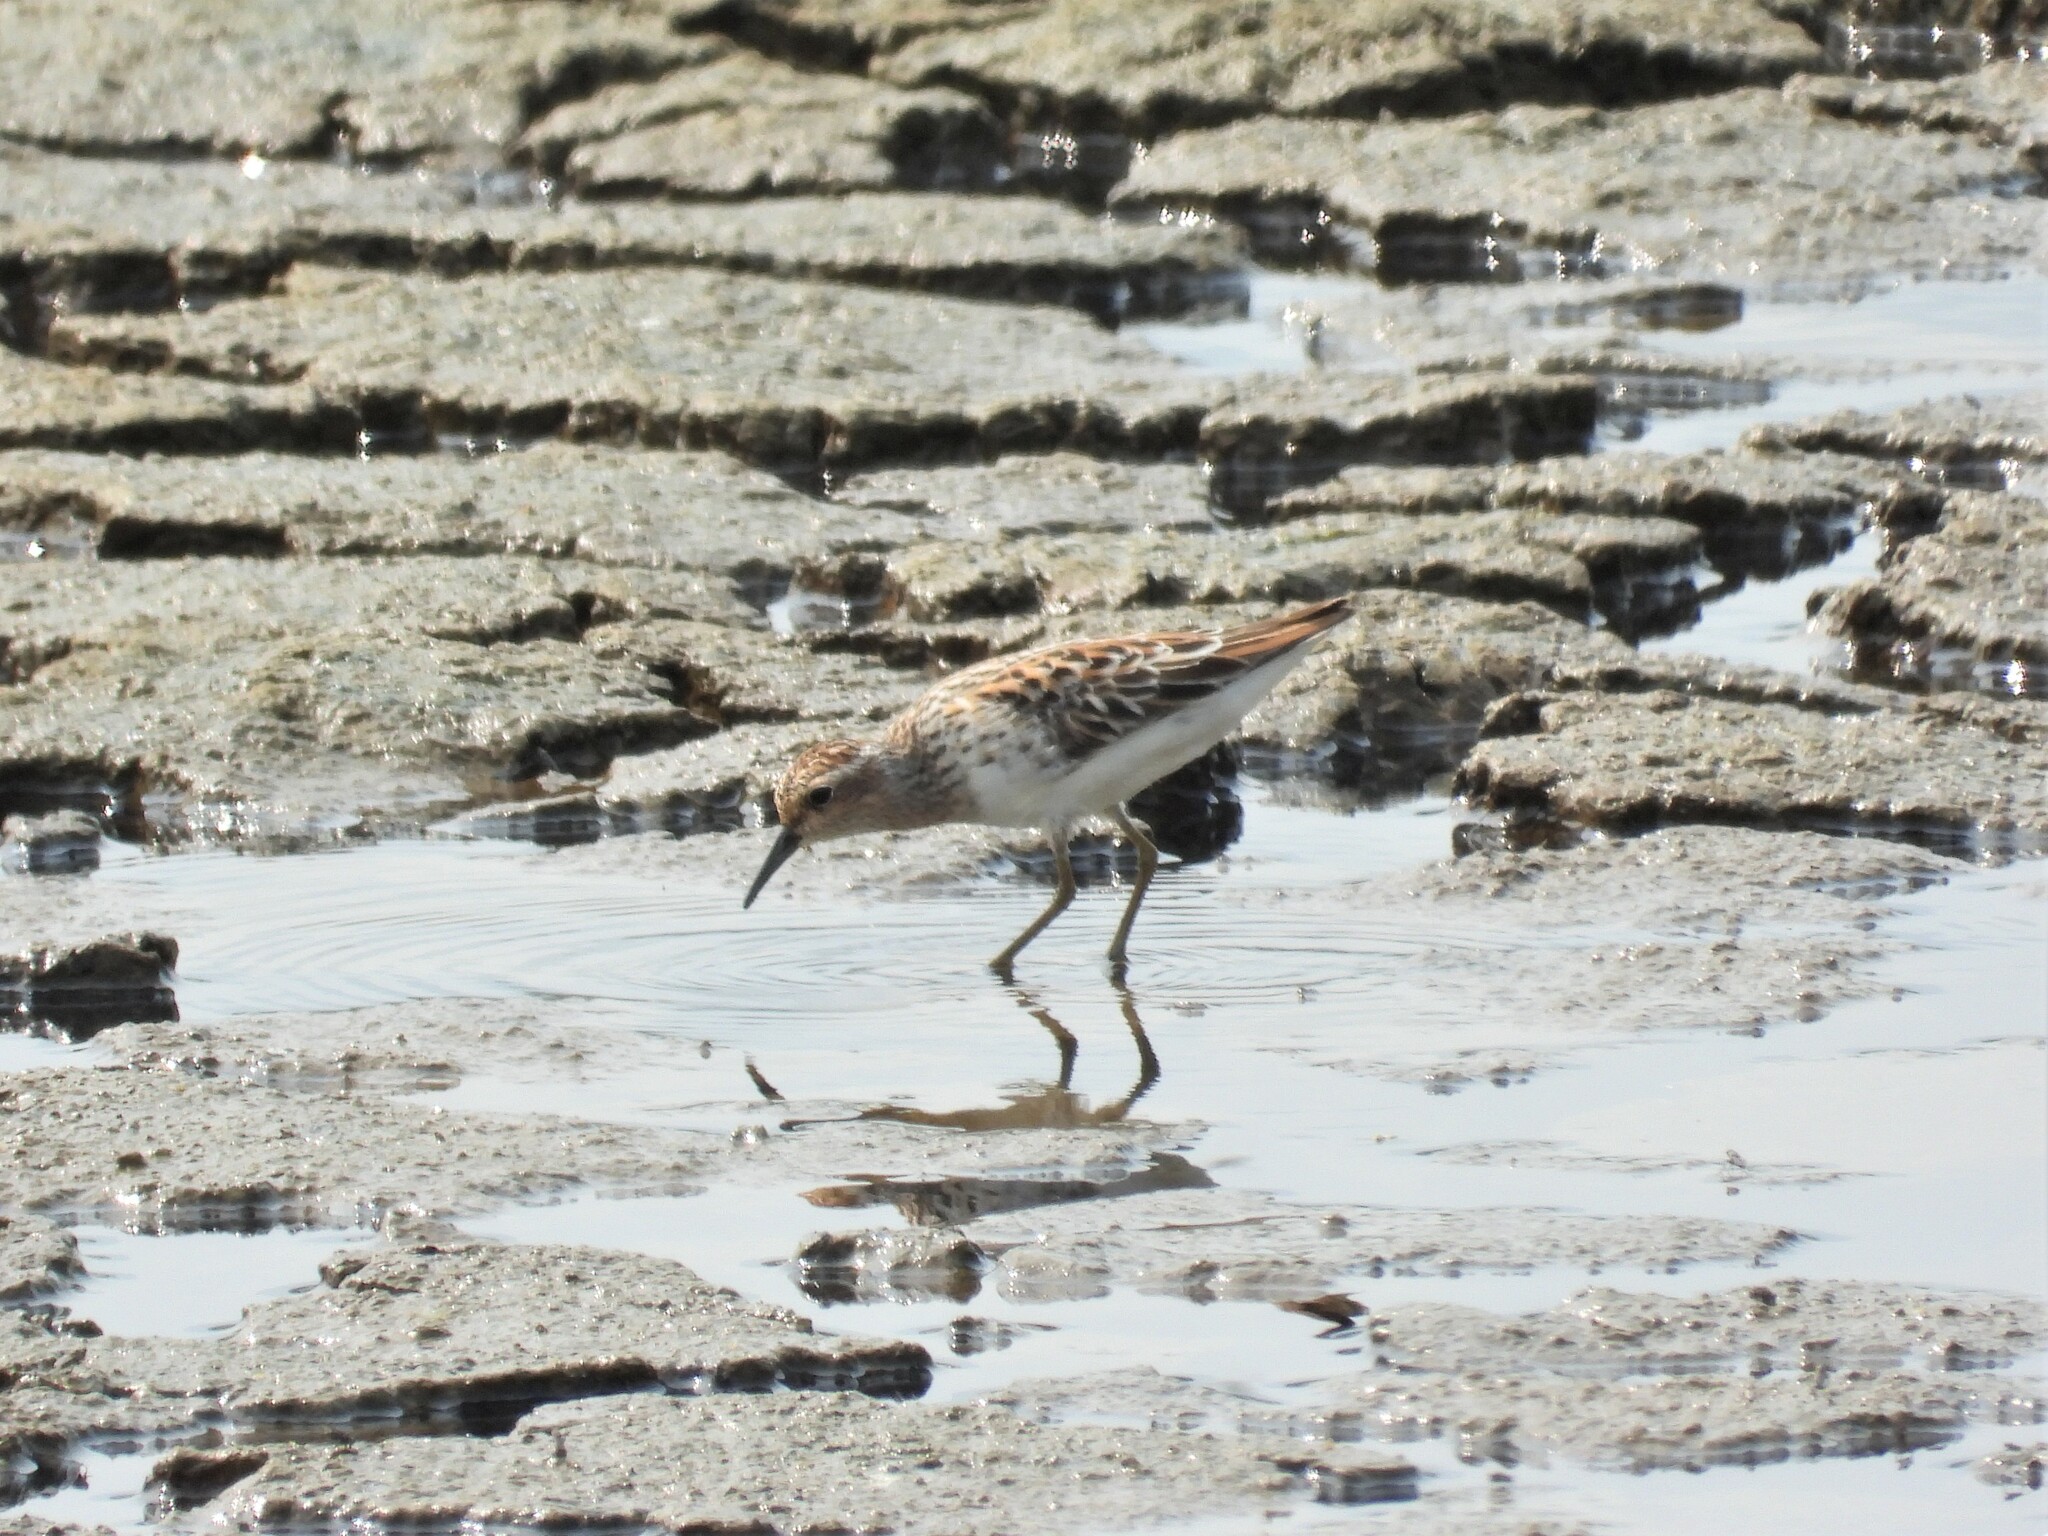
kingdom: Animalia
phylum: Chordata
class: Aves
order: Charadriiformes
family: Scolopacidae
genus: Calidris
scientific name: Calidris subminuta
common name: Long-toed stint
